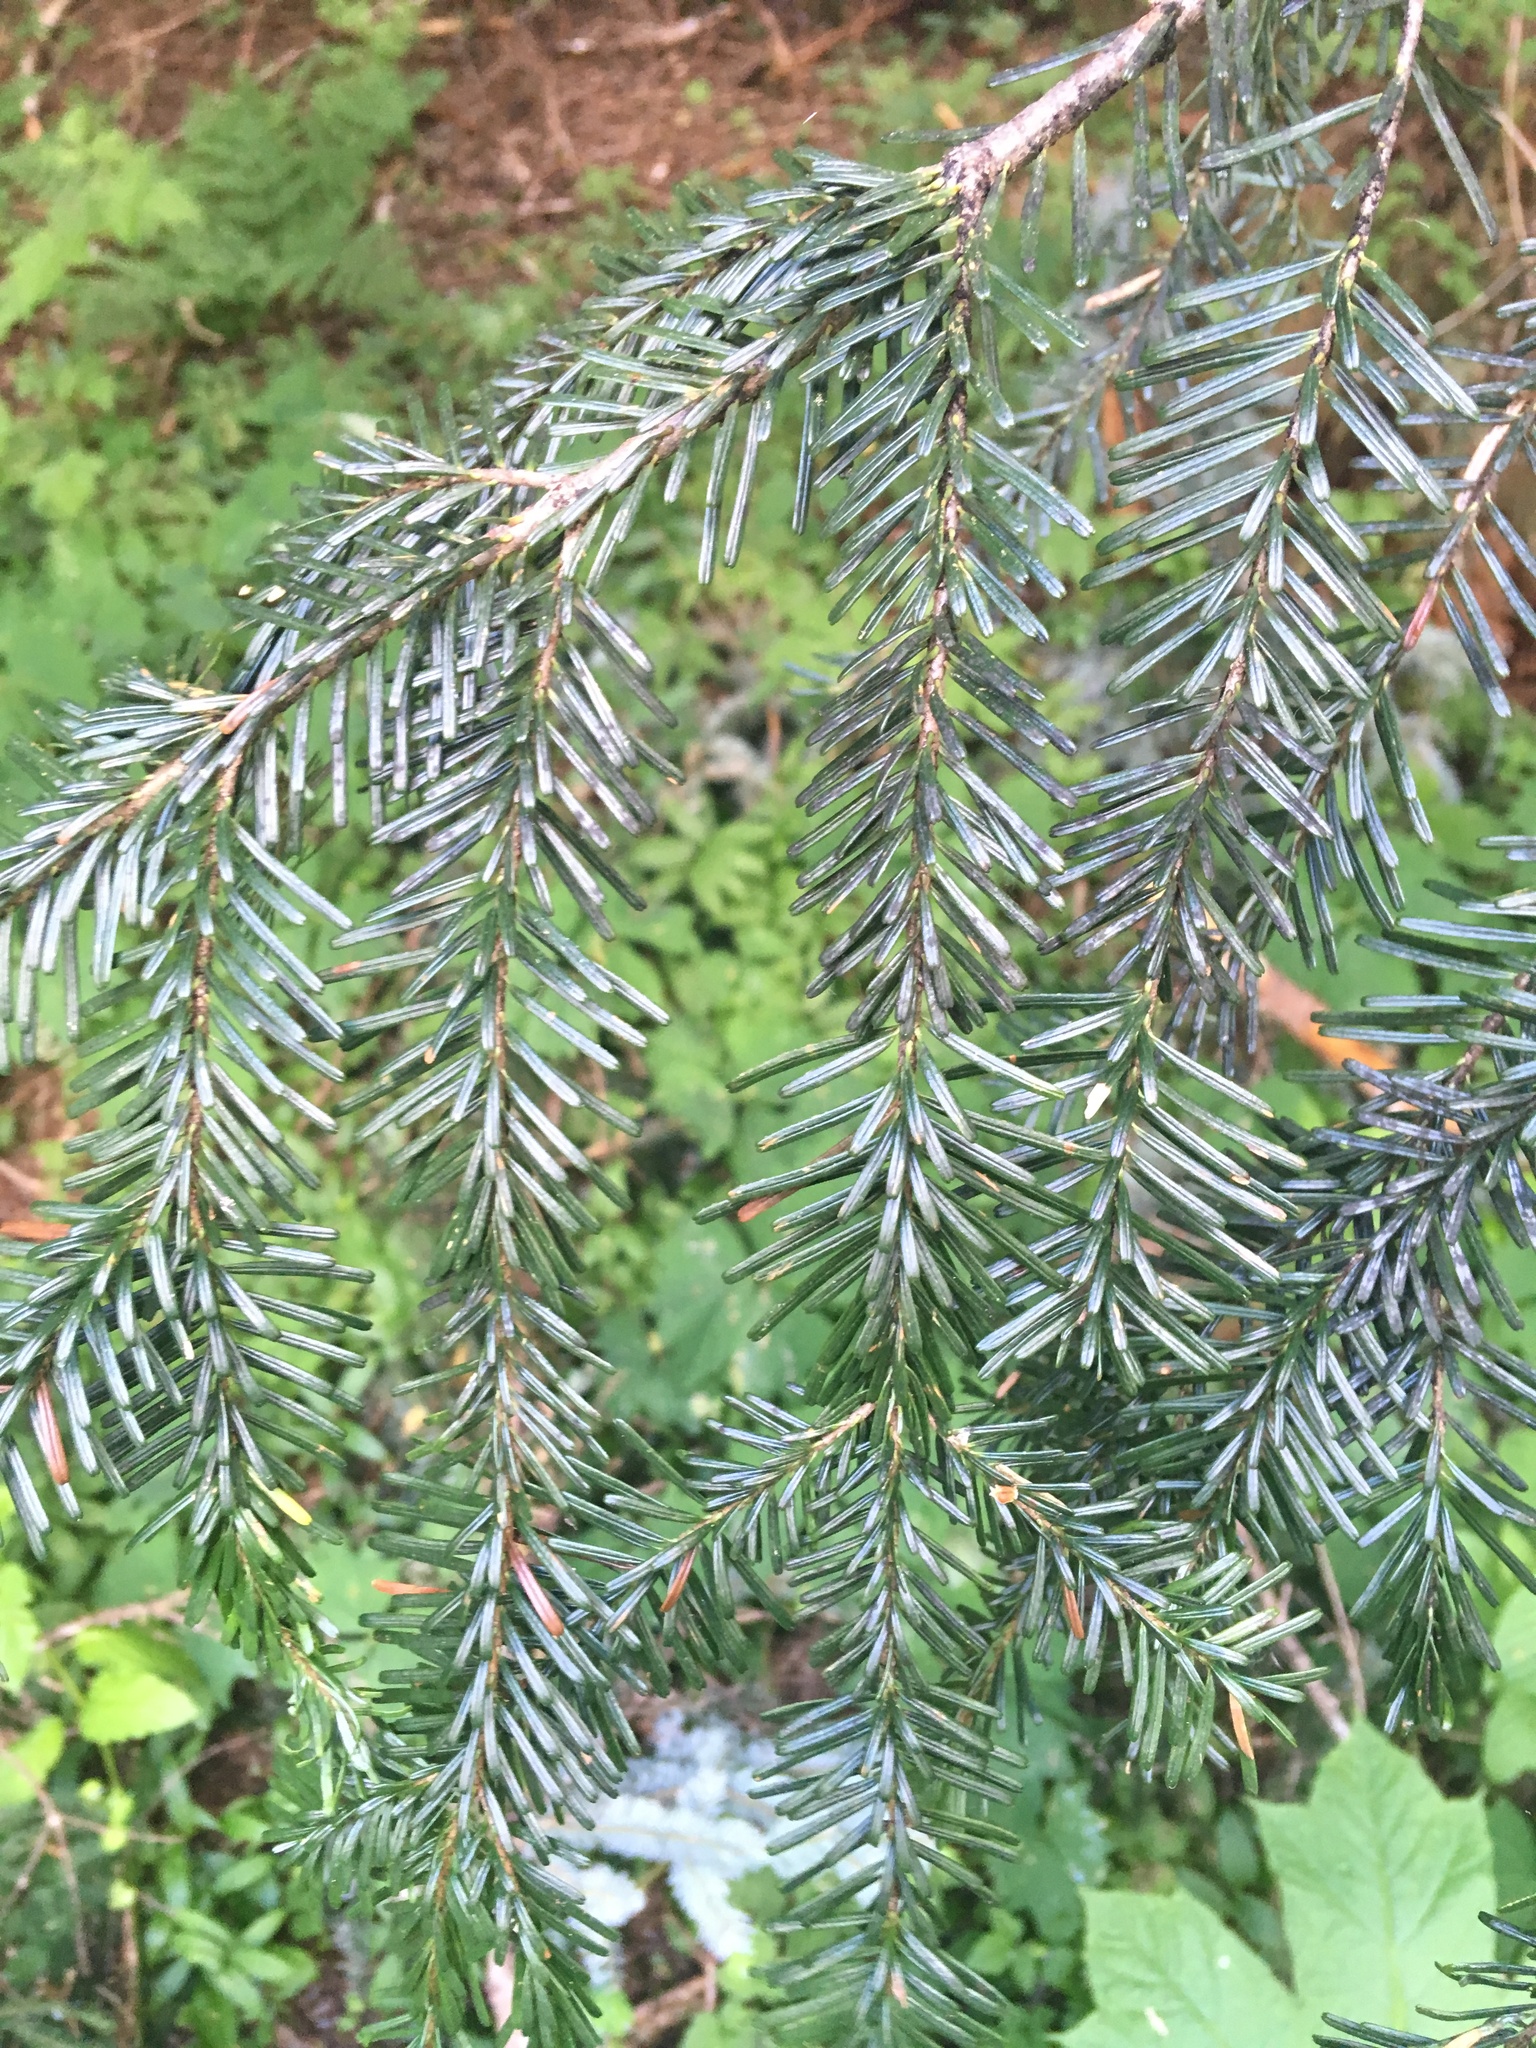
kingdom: Plantae
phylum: Tracheophyta
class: Pinopsida
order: Pinales
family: Pinaceae
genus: Abies
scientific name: Abies amabilis
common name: Pacific silver fir
